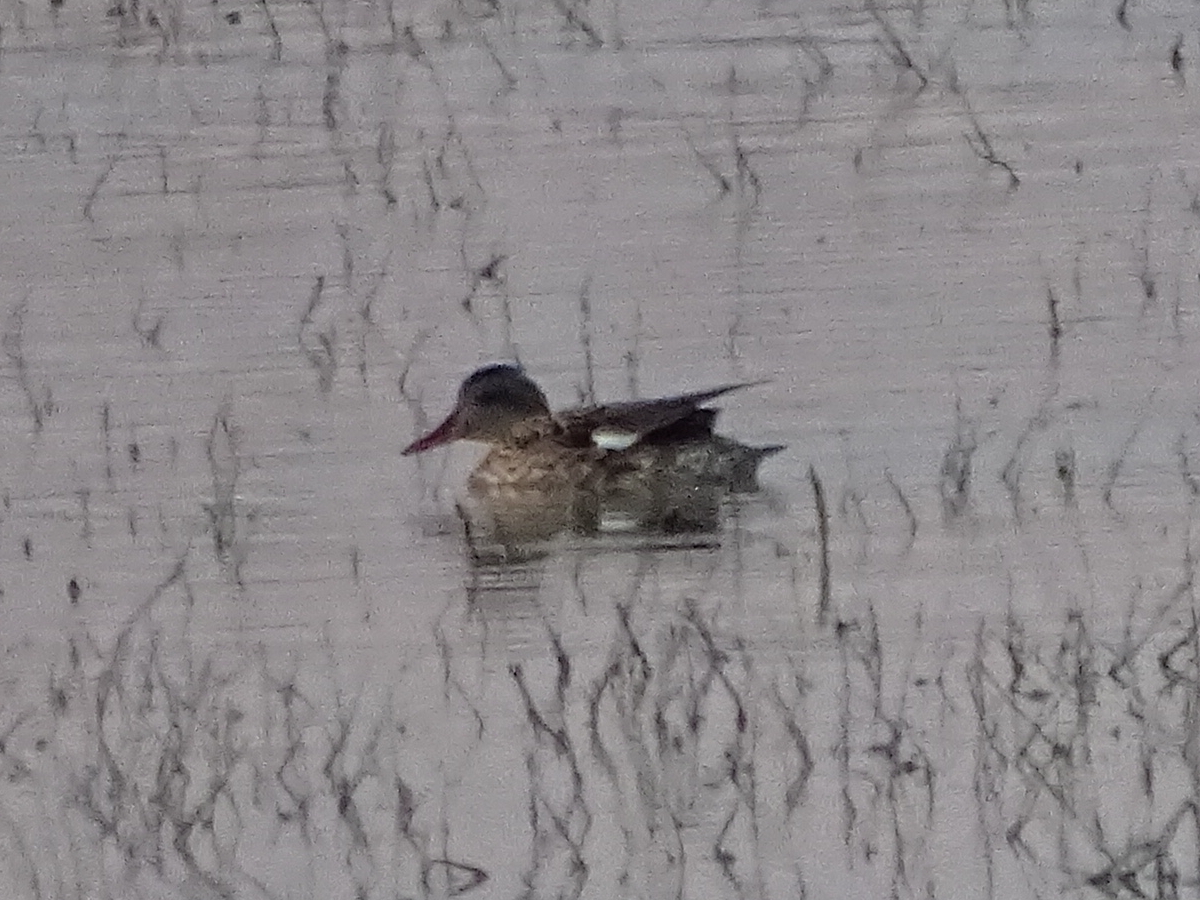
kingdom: Animalia
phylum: Chordata
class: Aves
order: Anseriformes
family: Anatidae
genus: Mareca
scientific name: Mareca strepera
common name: Gadwall
